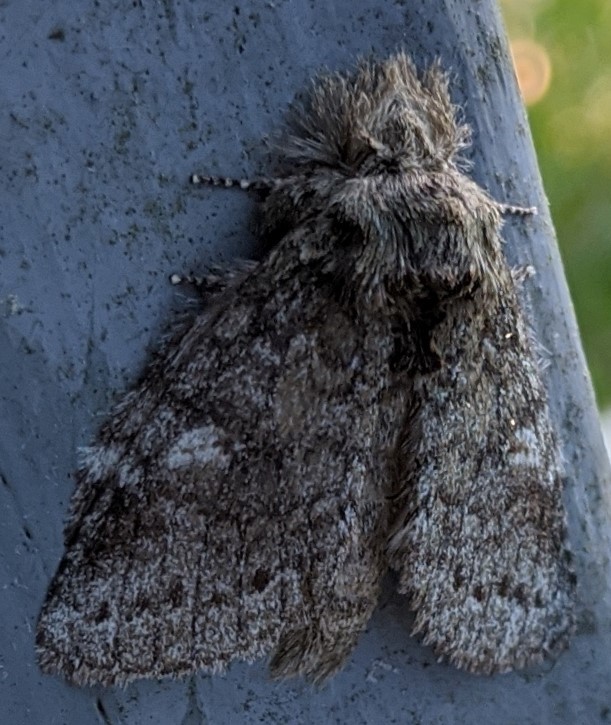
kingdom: Animalia
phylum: Arthropoda
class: Insecta
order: Lepidoptera
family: Notodontidae
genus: Disphragis
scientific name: Disphragis Cecrita guttivitta
